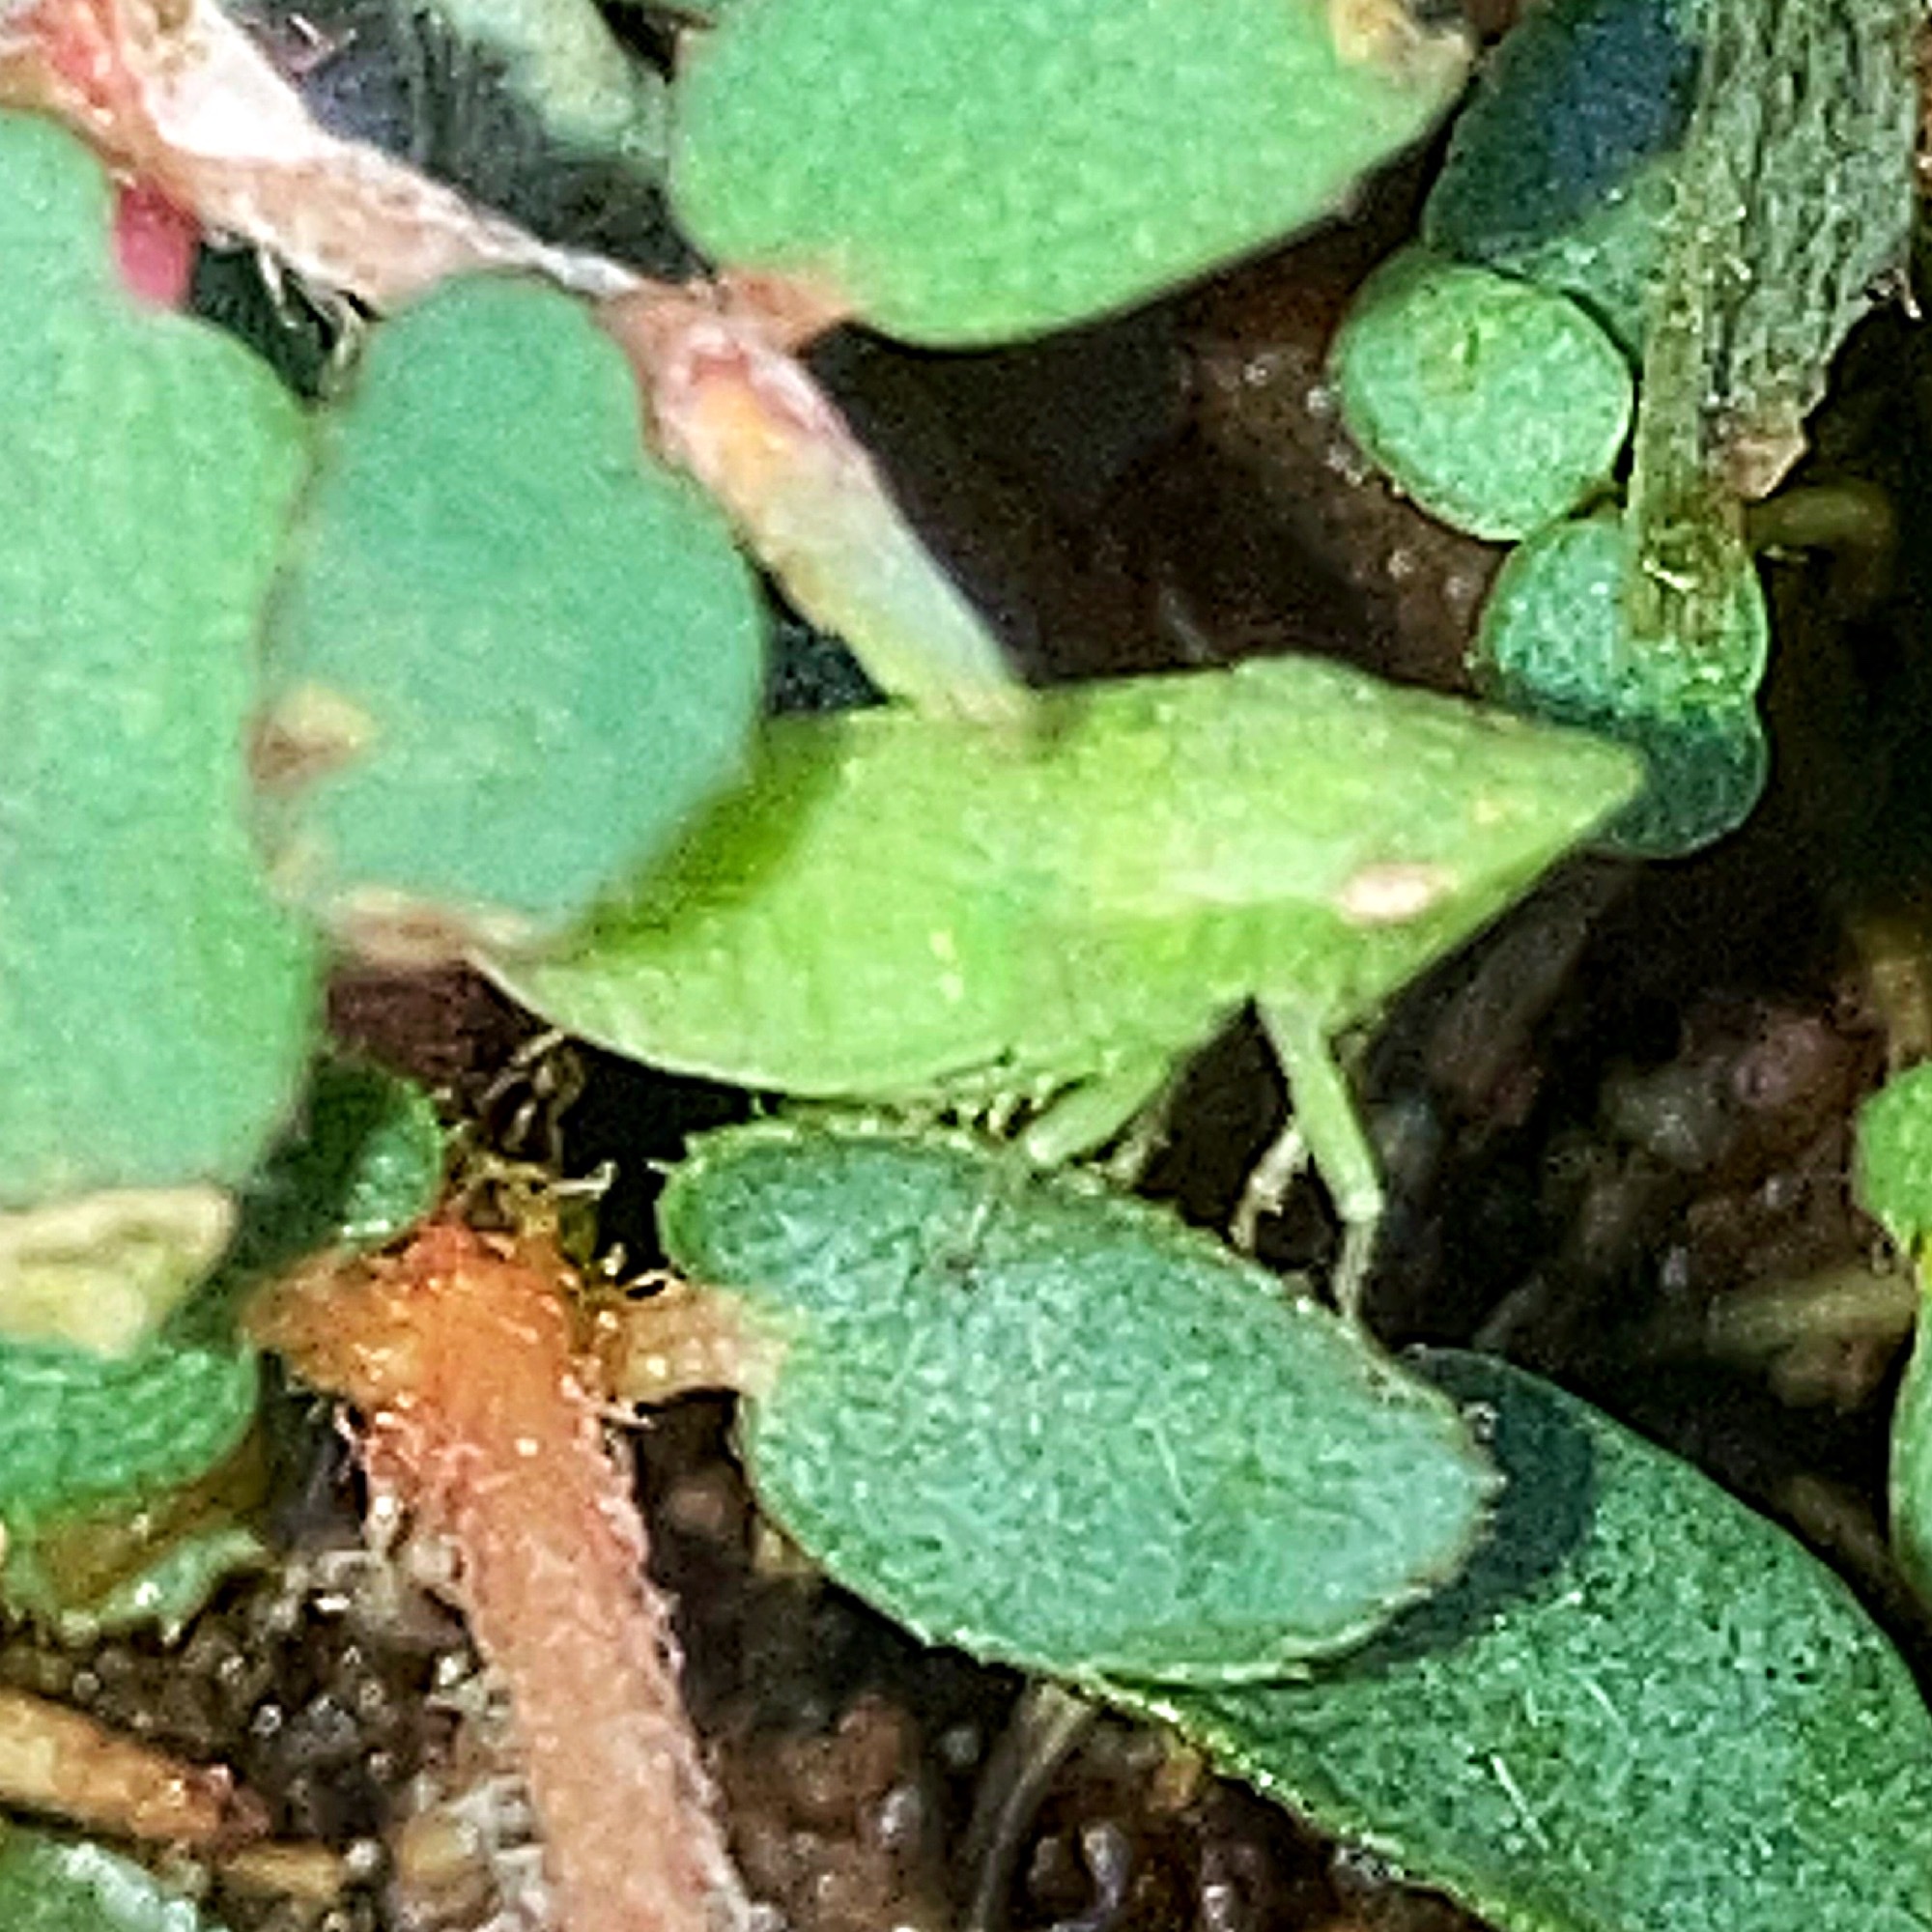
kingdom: Animalia
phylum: Arthropoda
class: Insecta
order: Hemiptera
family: Cicadellidae
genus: Xerophloea
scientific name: Xerophloea viridis
